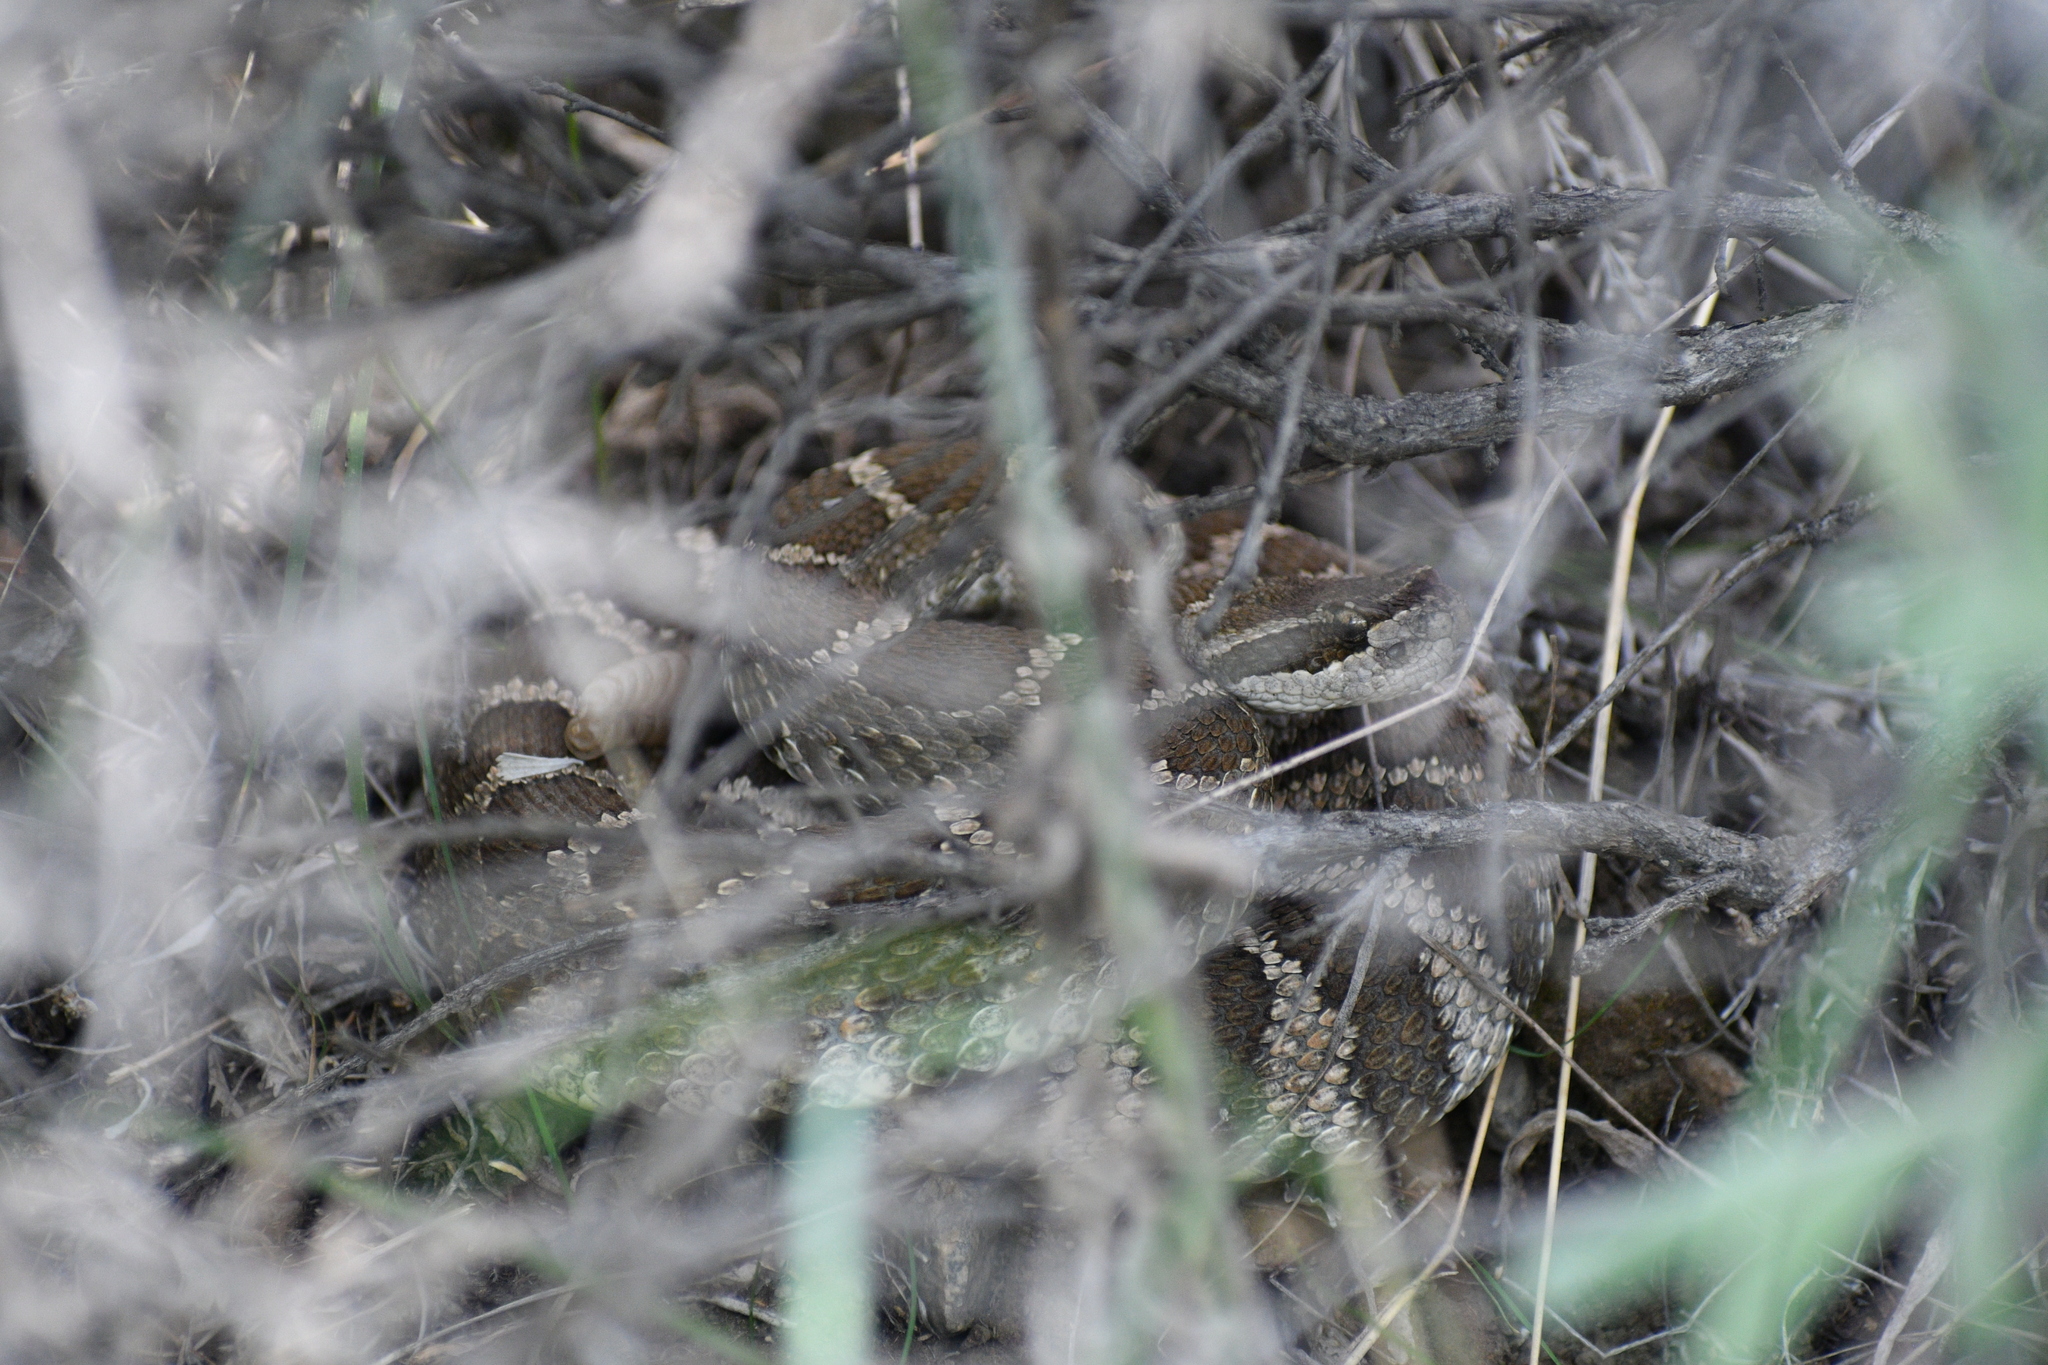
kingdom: Animalia
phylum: Chordata
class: Squamata
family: Viperidae
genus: Crotalus
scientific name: Crotalus oreganus
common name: Abyssus
